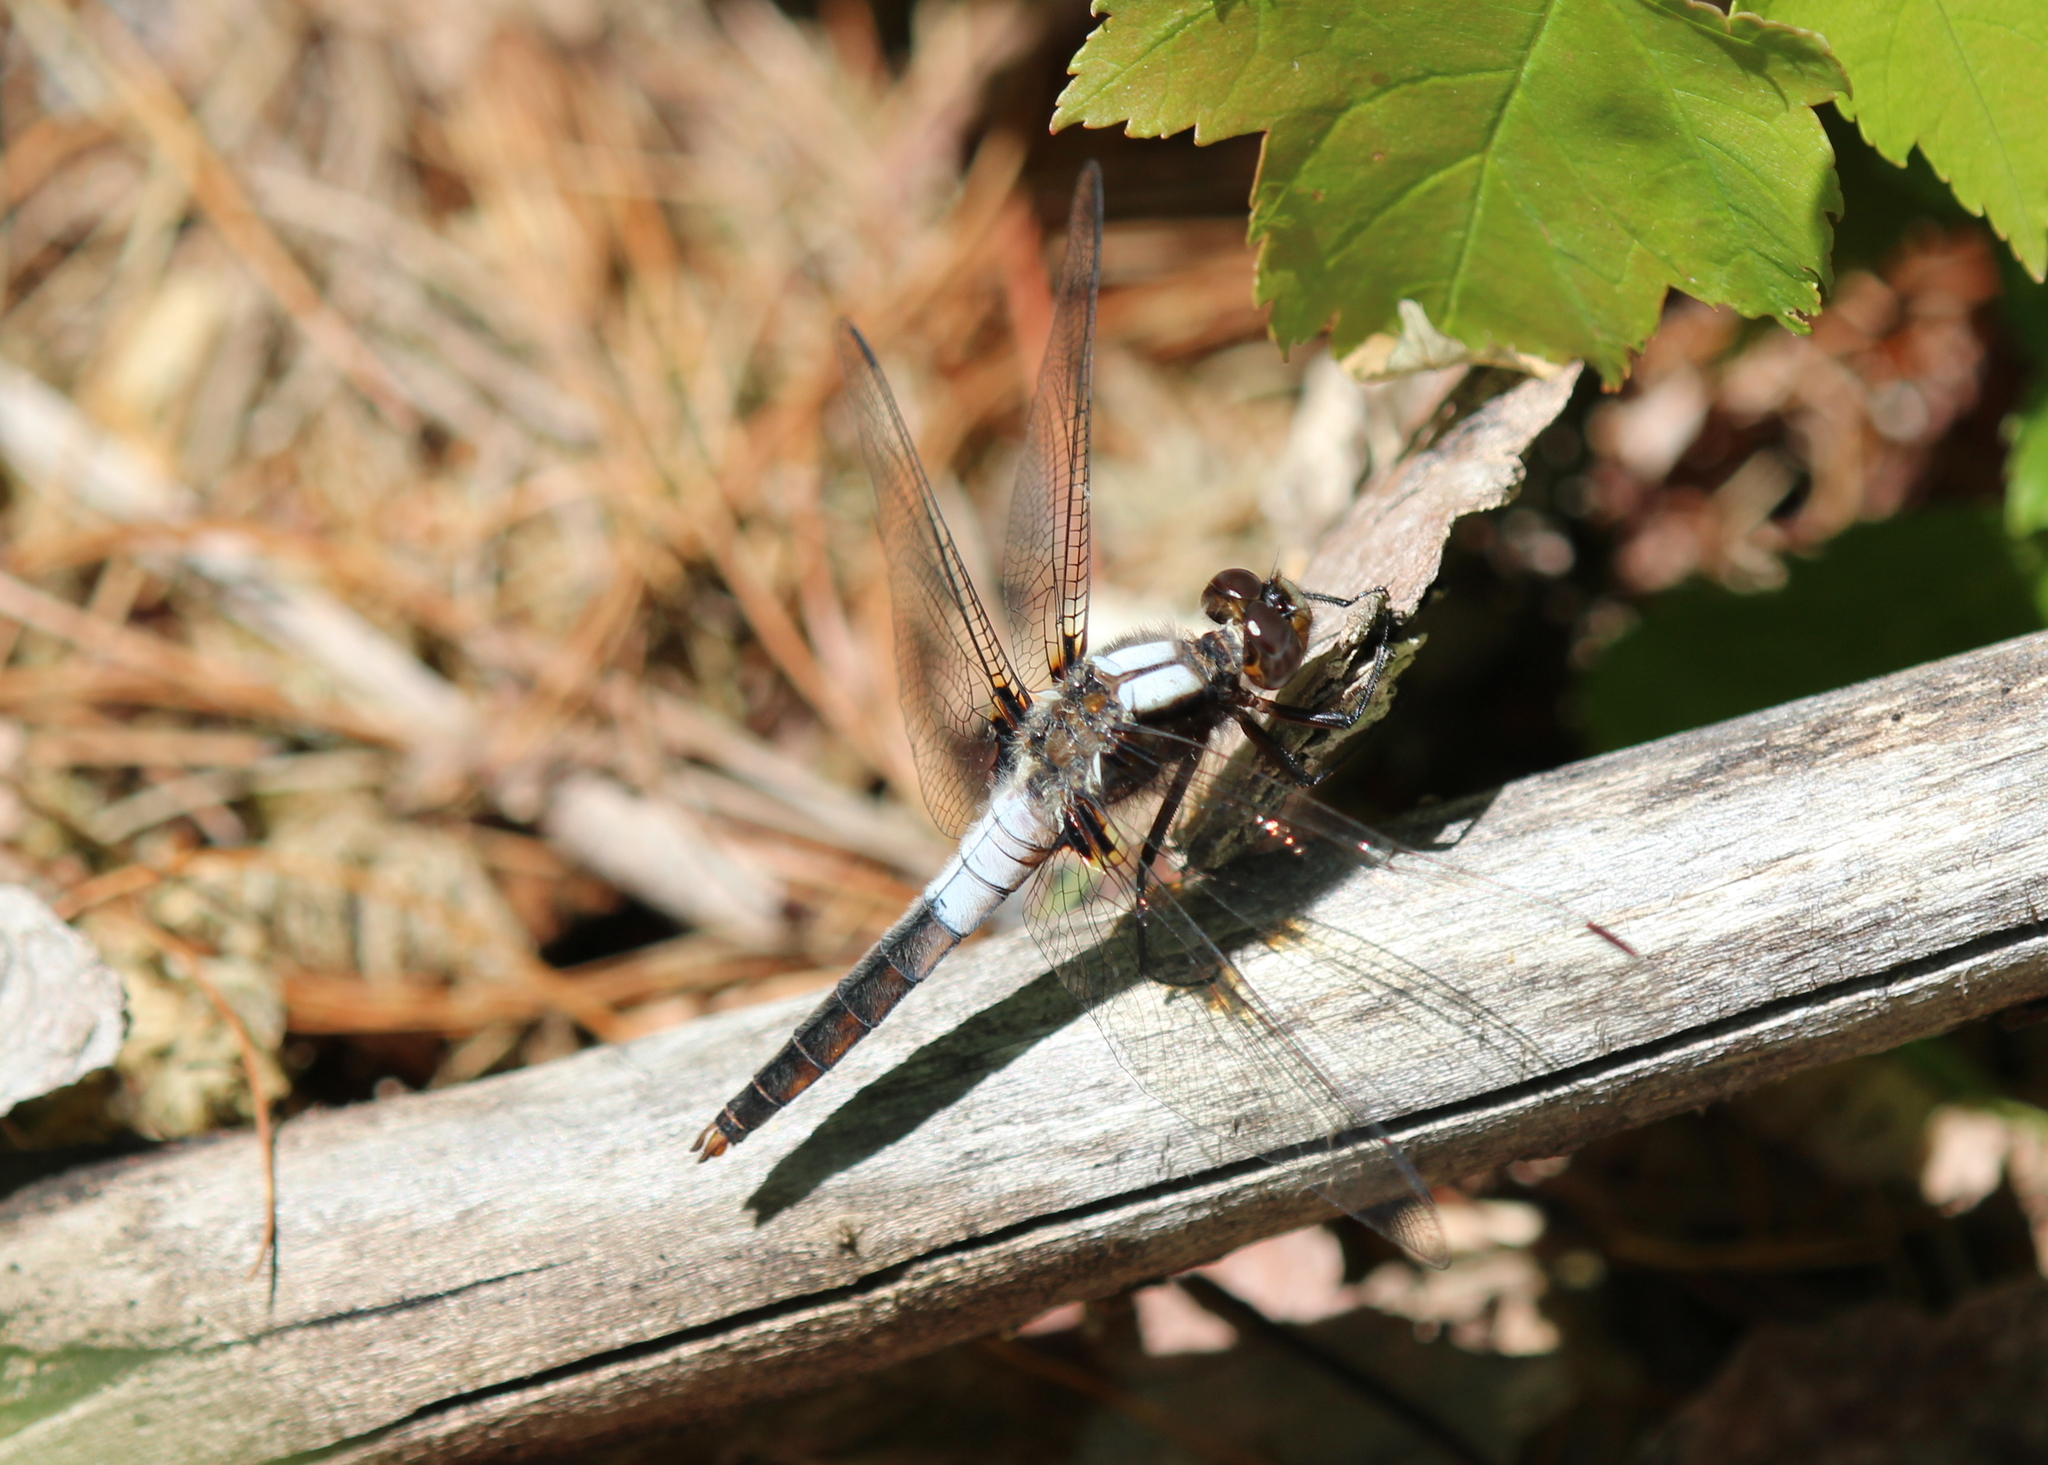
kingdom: Animalia
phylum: Arthropoda
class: Insecta
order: Odonata
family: Libellulidae
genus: Ladona
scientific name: Ladona julia
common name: Chalk-fronted corporal
